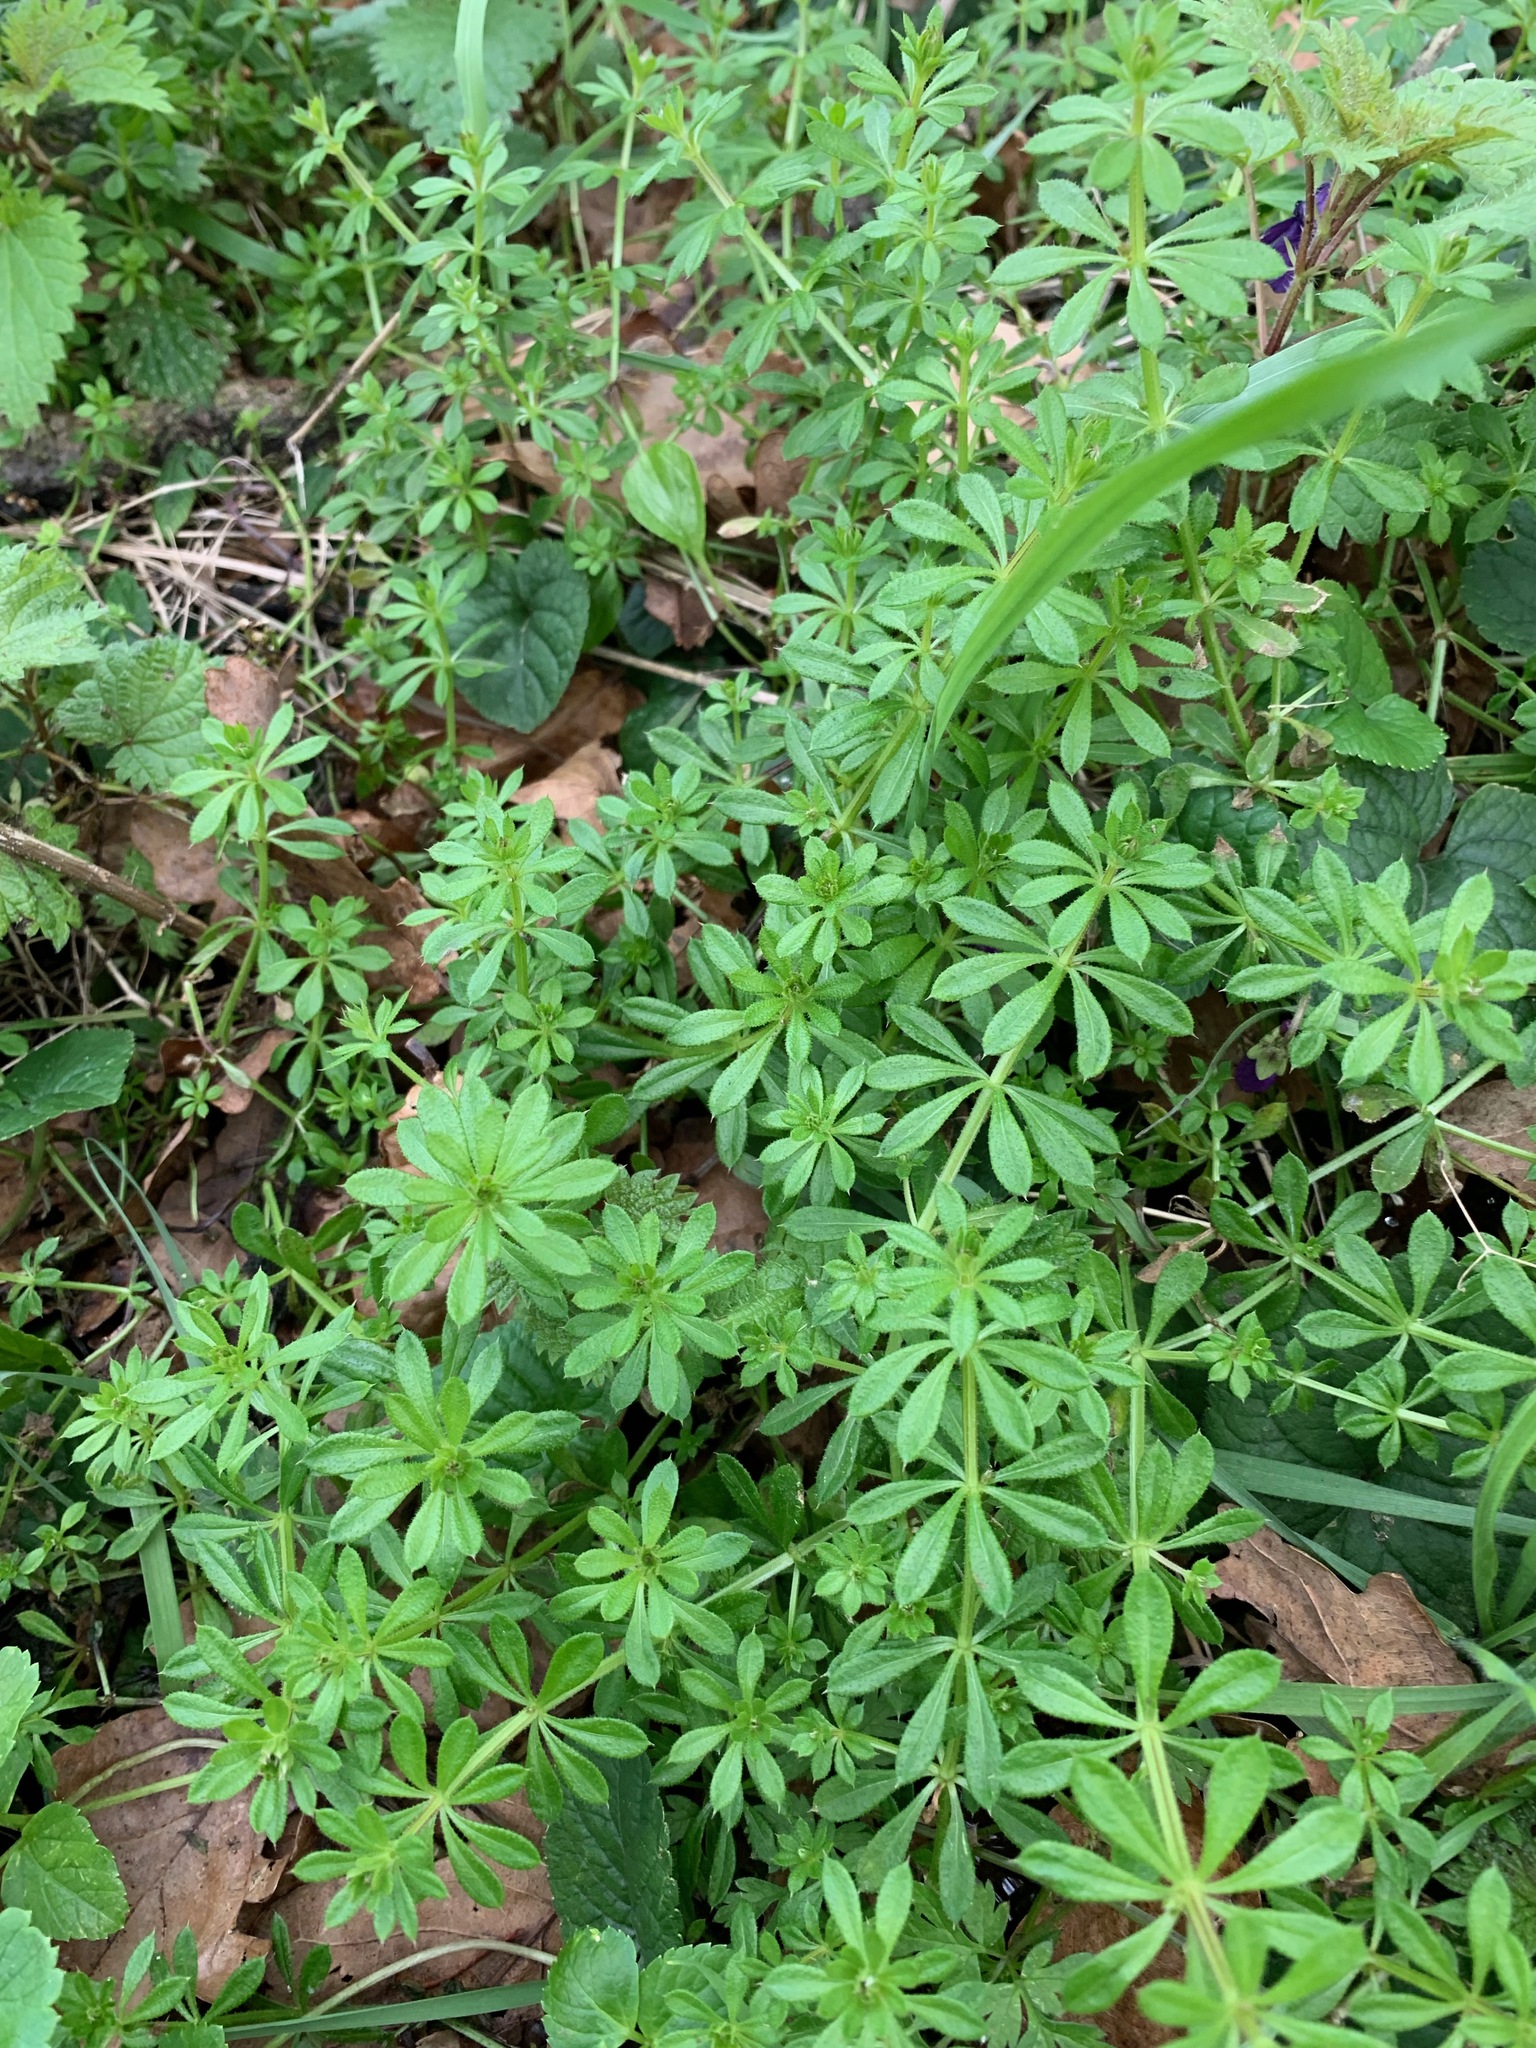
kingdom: Plantae
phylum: Tracheophyta
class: Magnoliopsida
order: Gentianales
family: Rubiaceae
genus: Galium
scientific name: Galium aparine
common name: Cleavers
